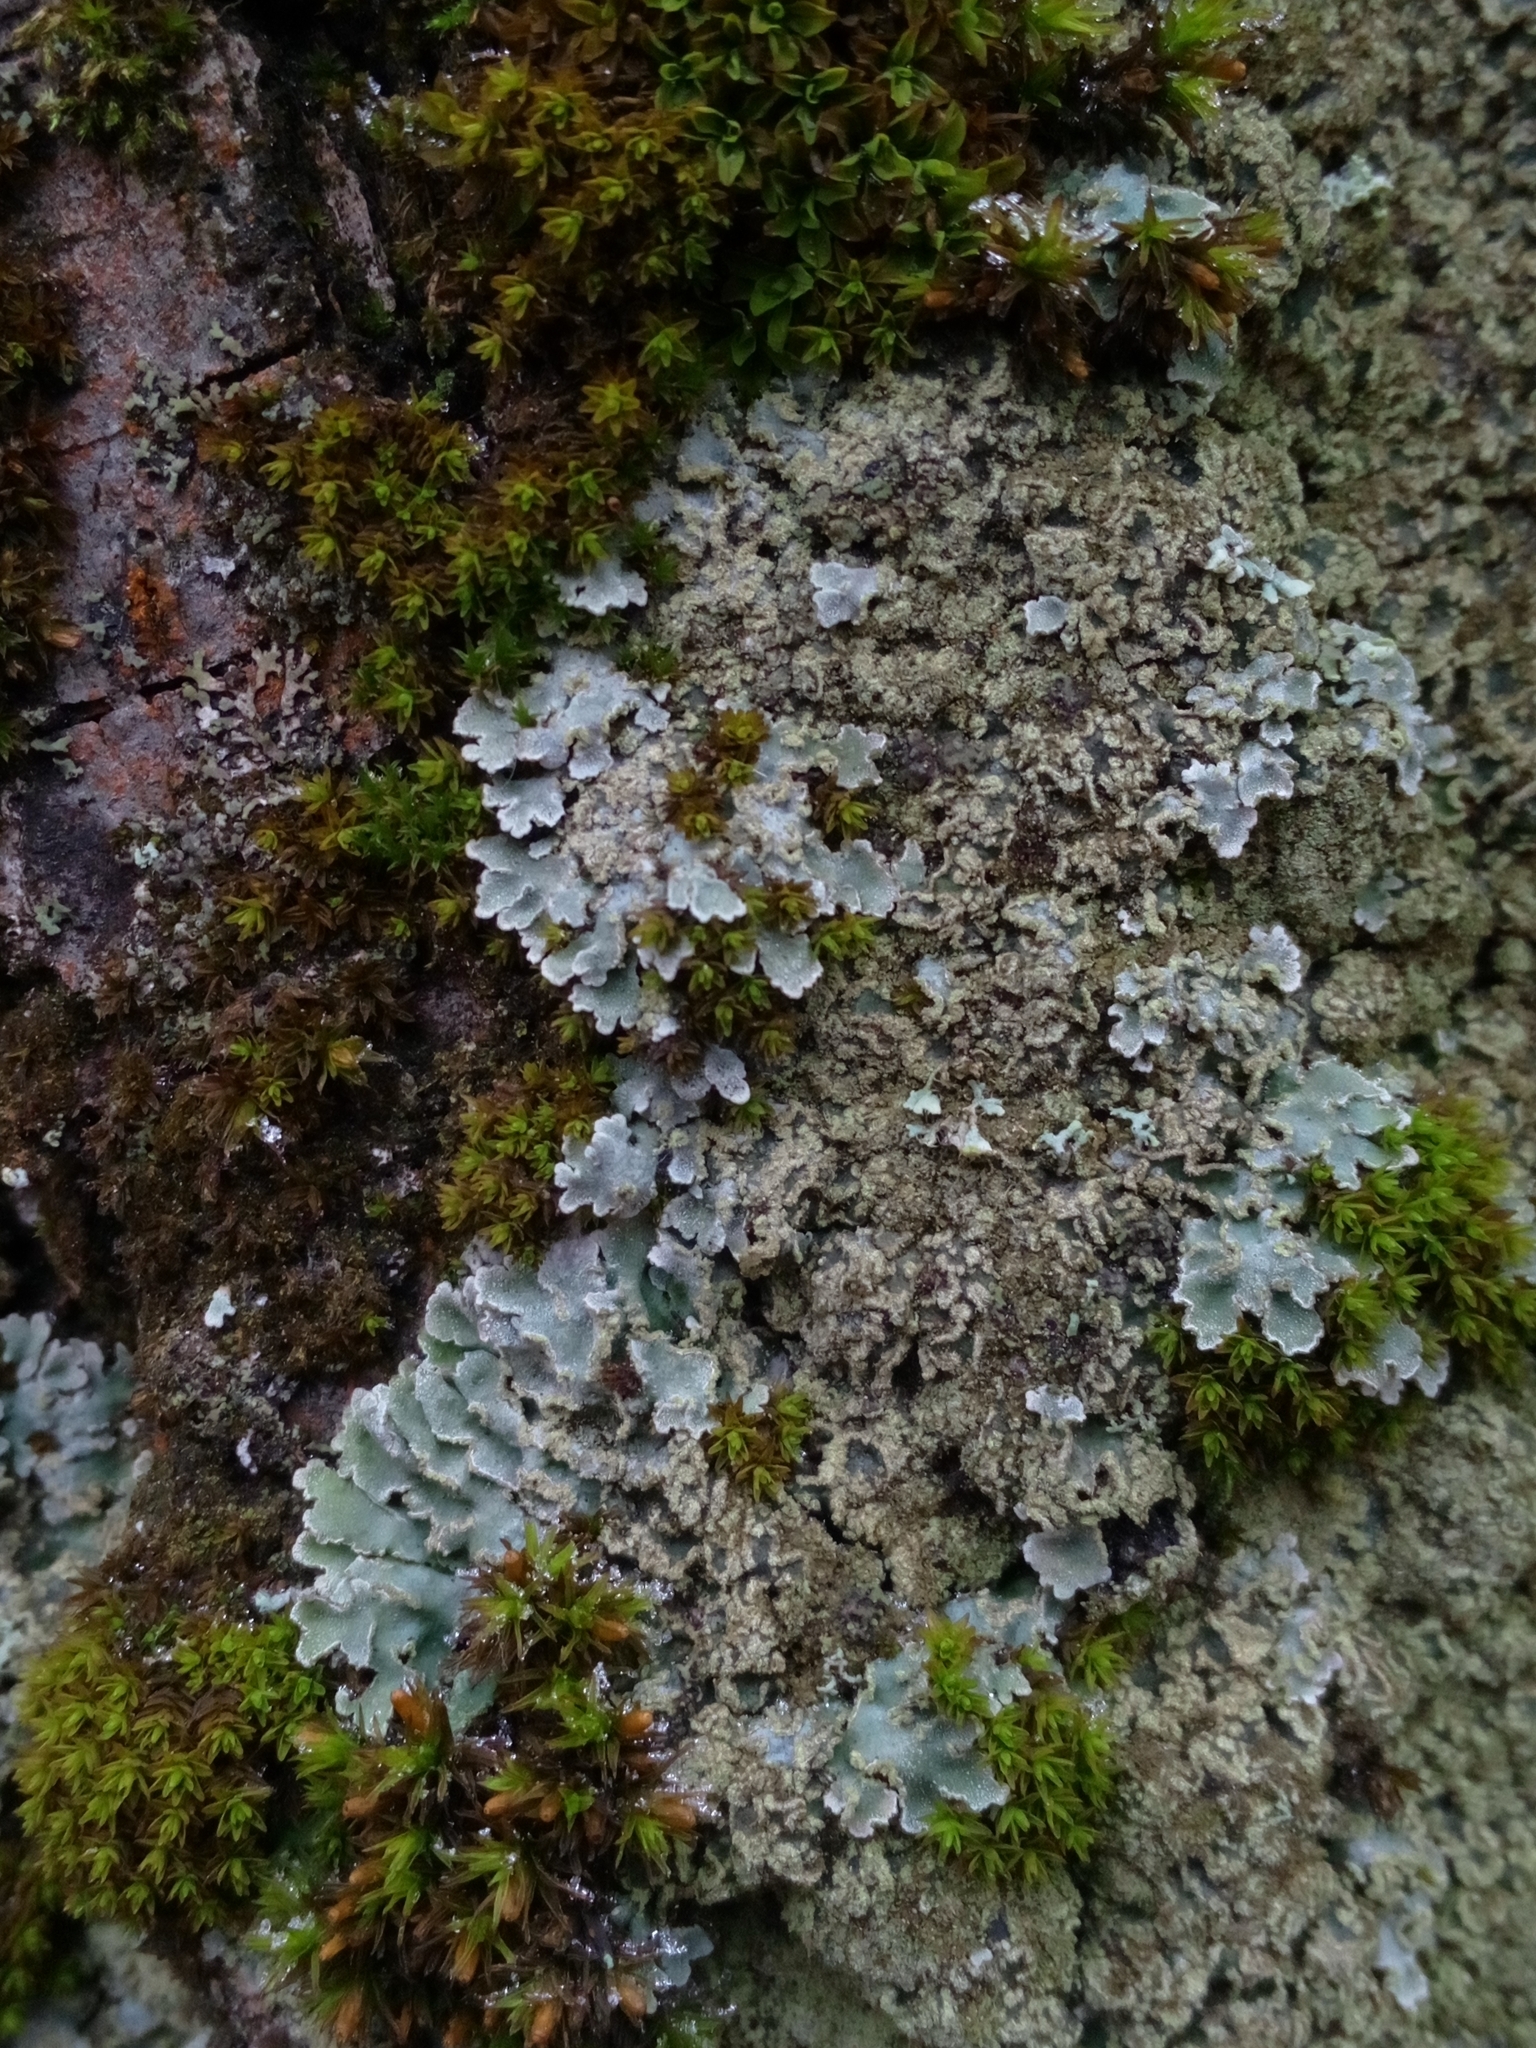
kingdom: Fungi
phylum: Ascomycota
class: Lecanoromycetes
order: Caliciales
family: Physciaceae
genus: Physconia
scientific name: Physconia
